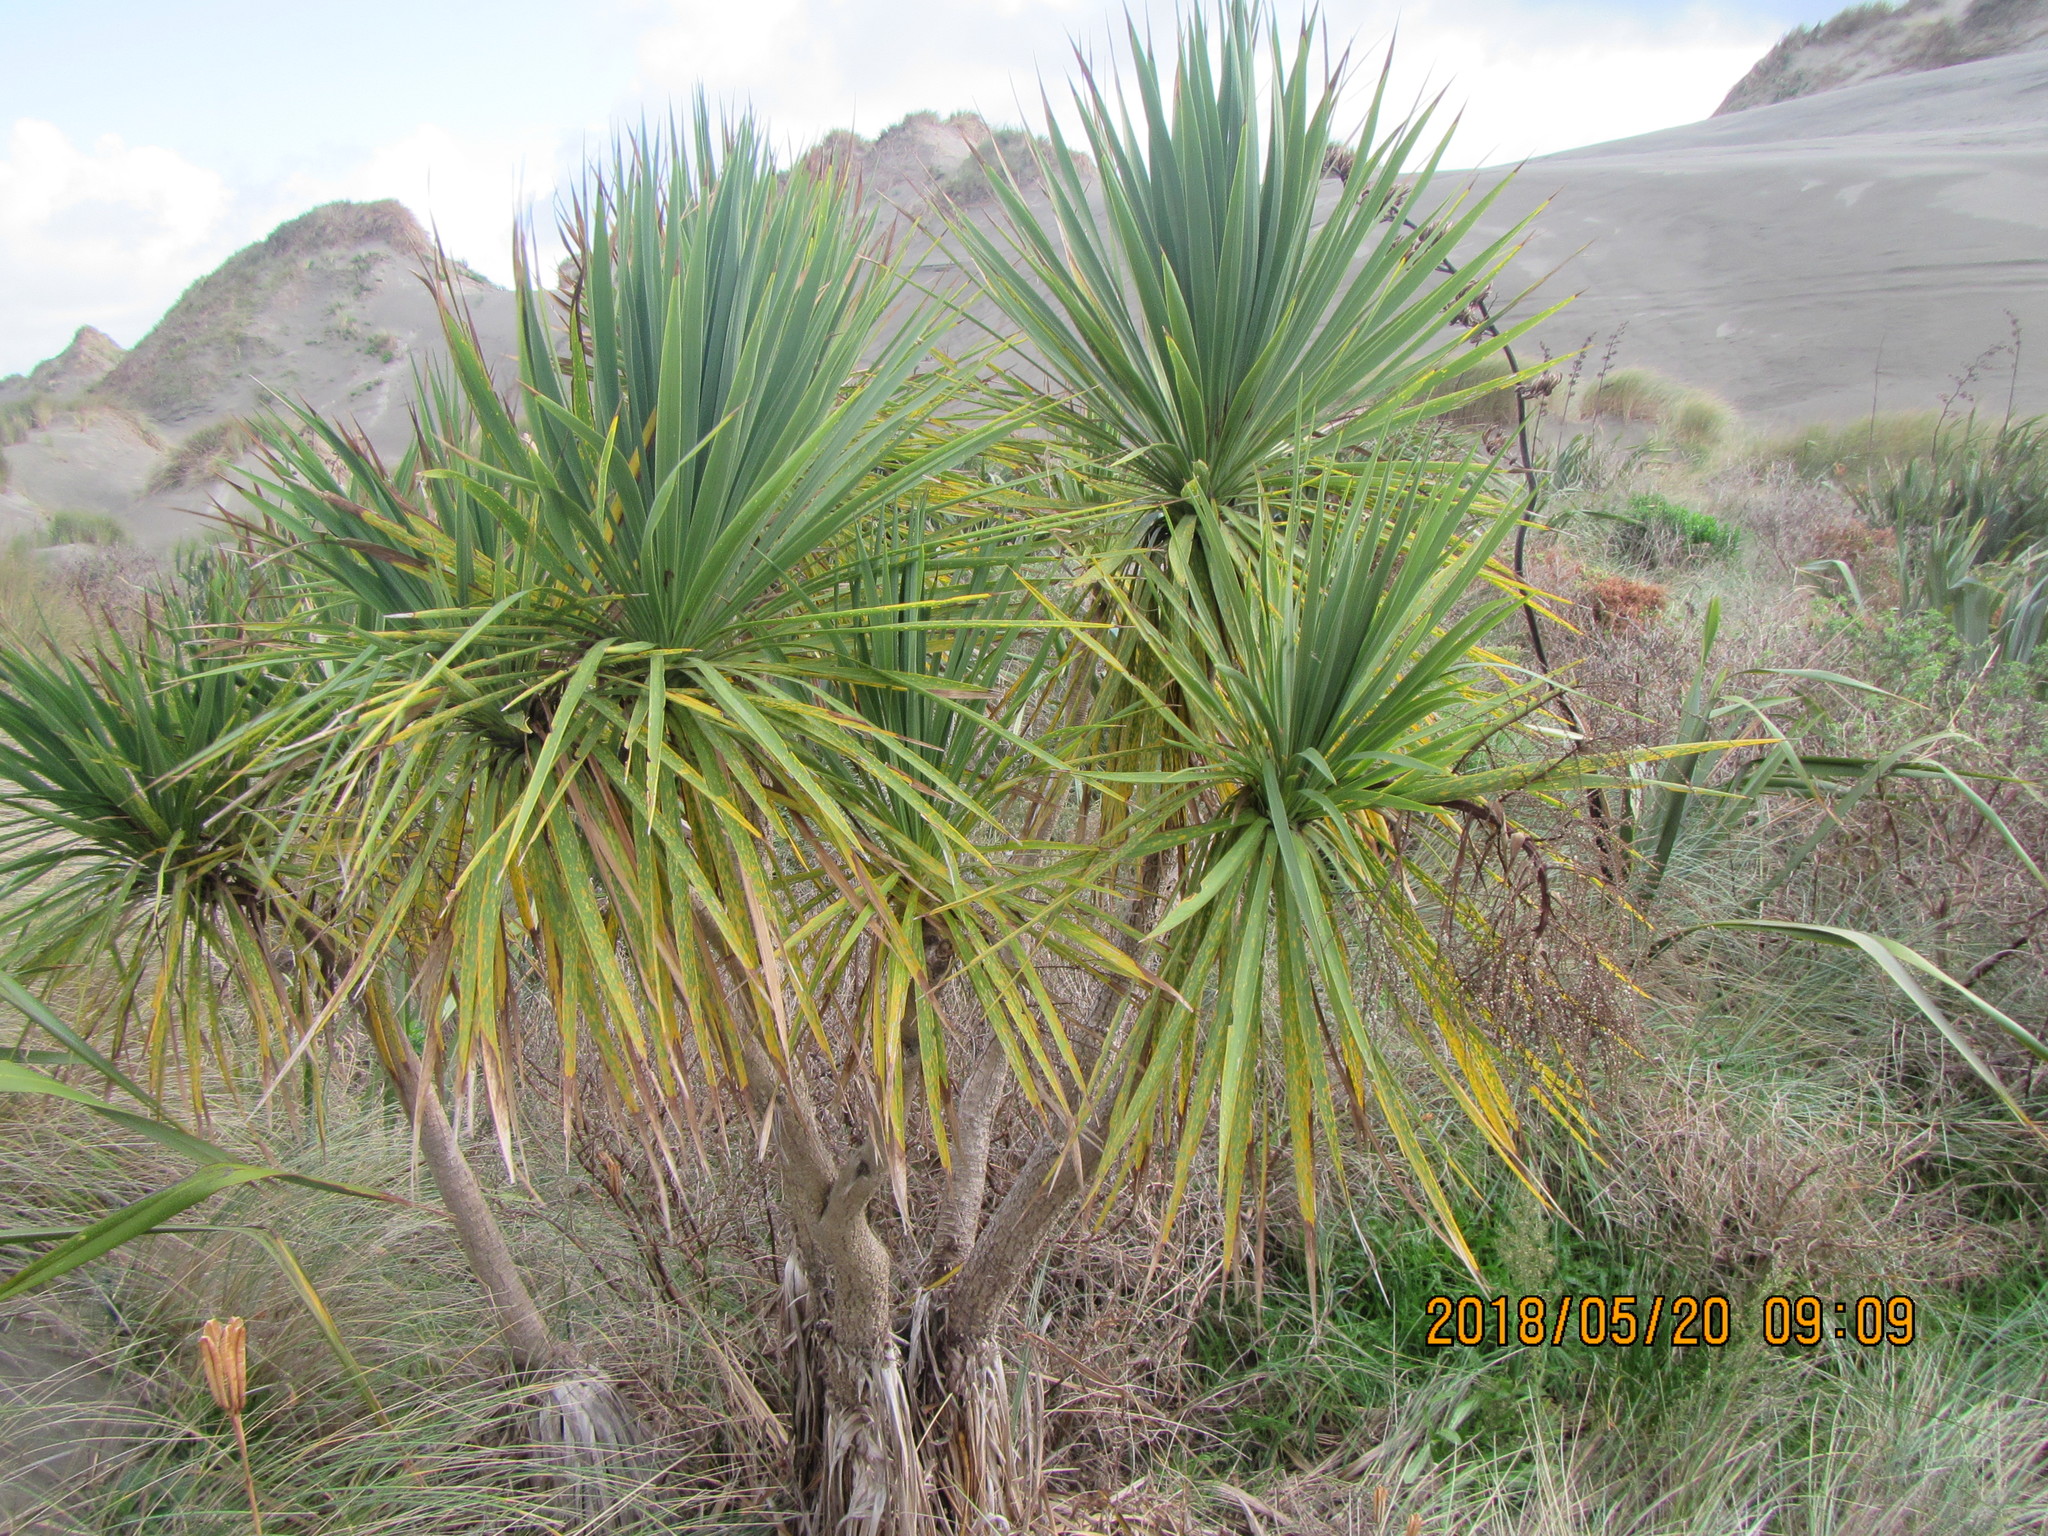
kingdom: Plantae
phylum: Tracheophyta
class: Liliopsida
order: Asparagales
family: Asparagaceae
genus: Cordyline
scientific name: Cordyline australis
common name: Cabbage-palm
